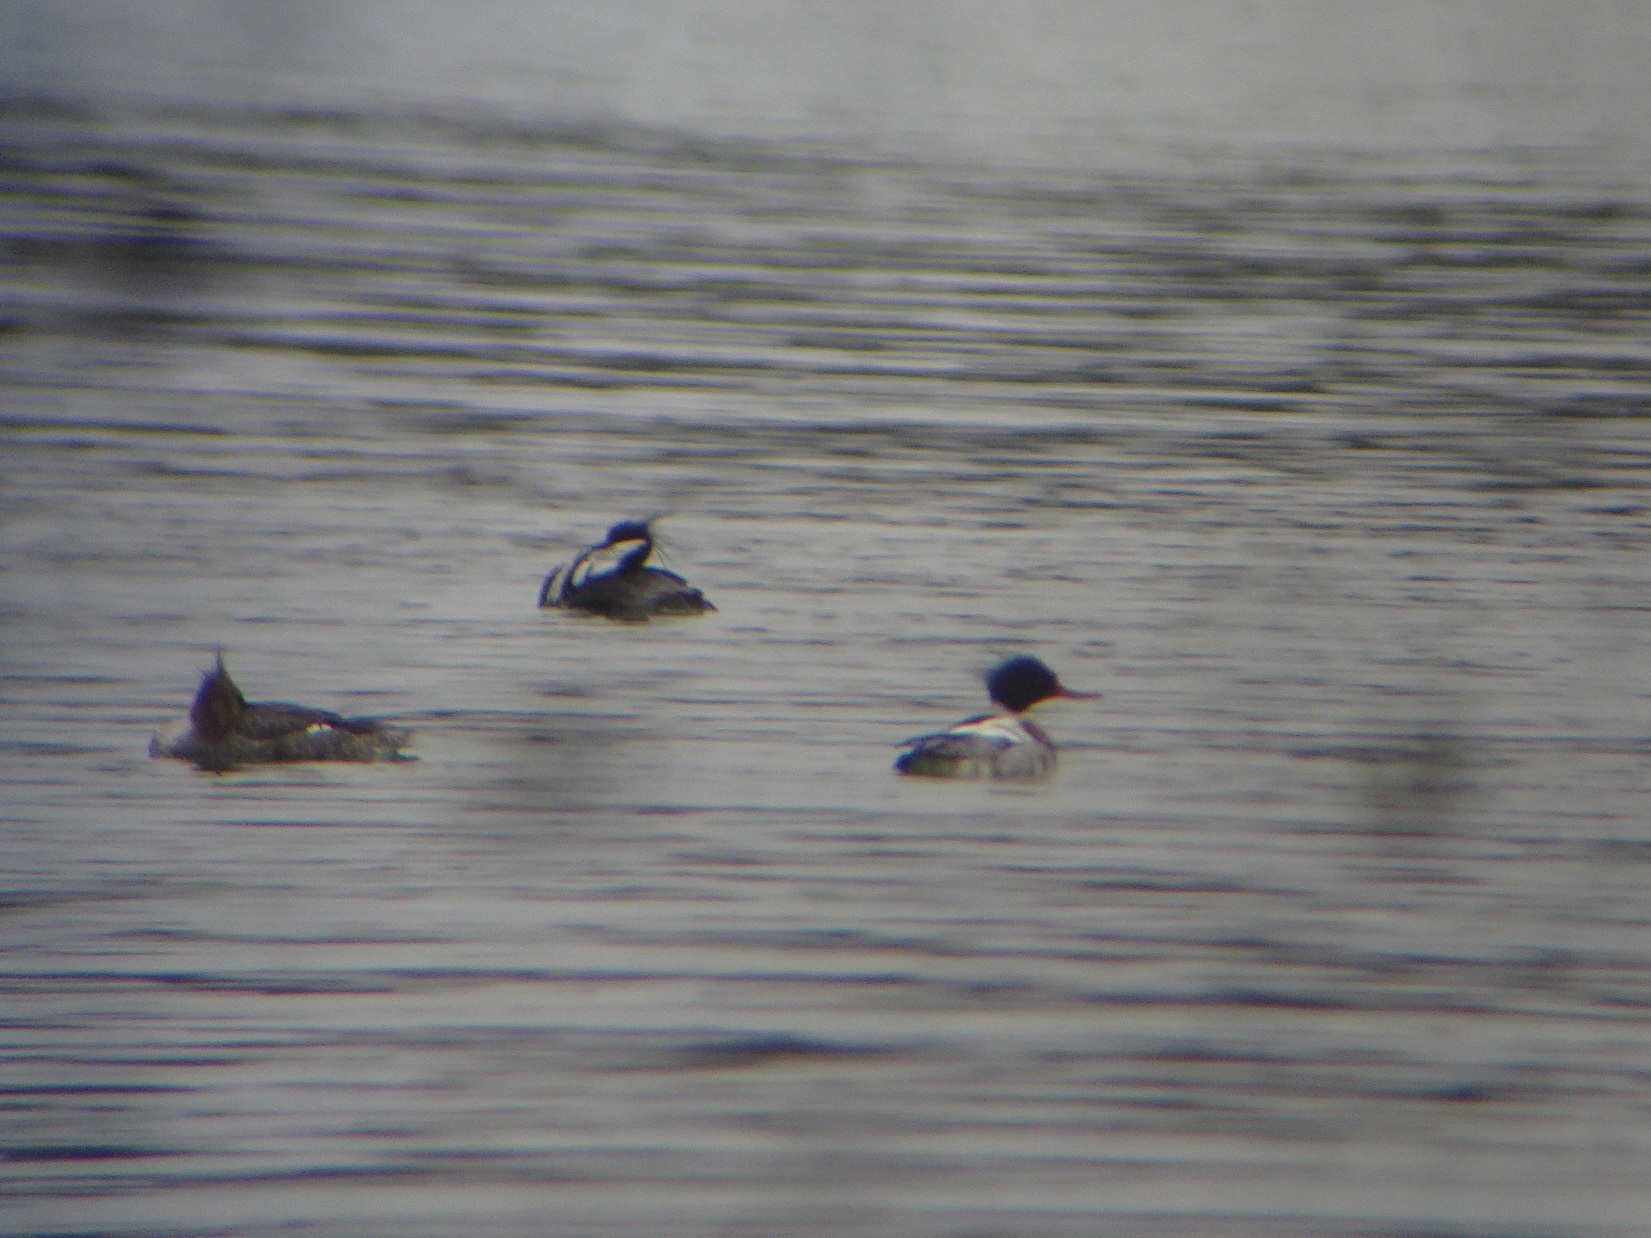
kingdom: Animalia
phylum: Chordata
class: Aves
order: Anseriformes
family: Anatidae
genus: Mergus
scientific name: Mergus serrator
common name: Red-breasted merganser
